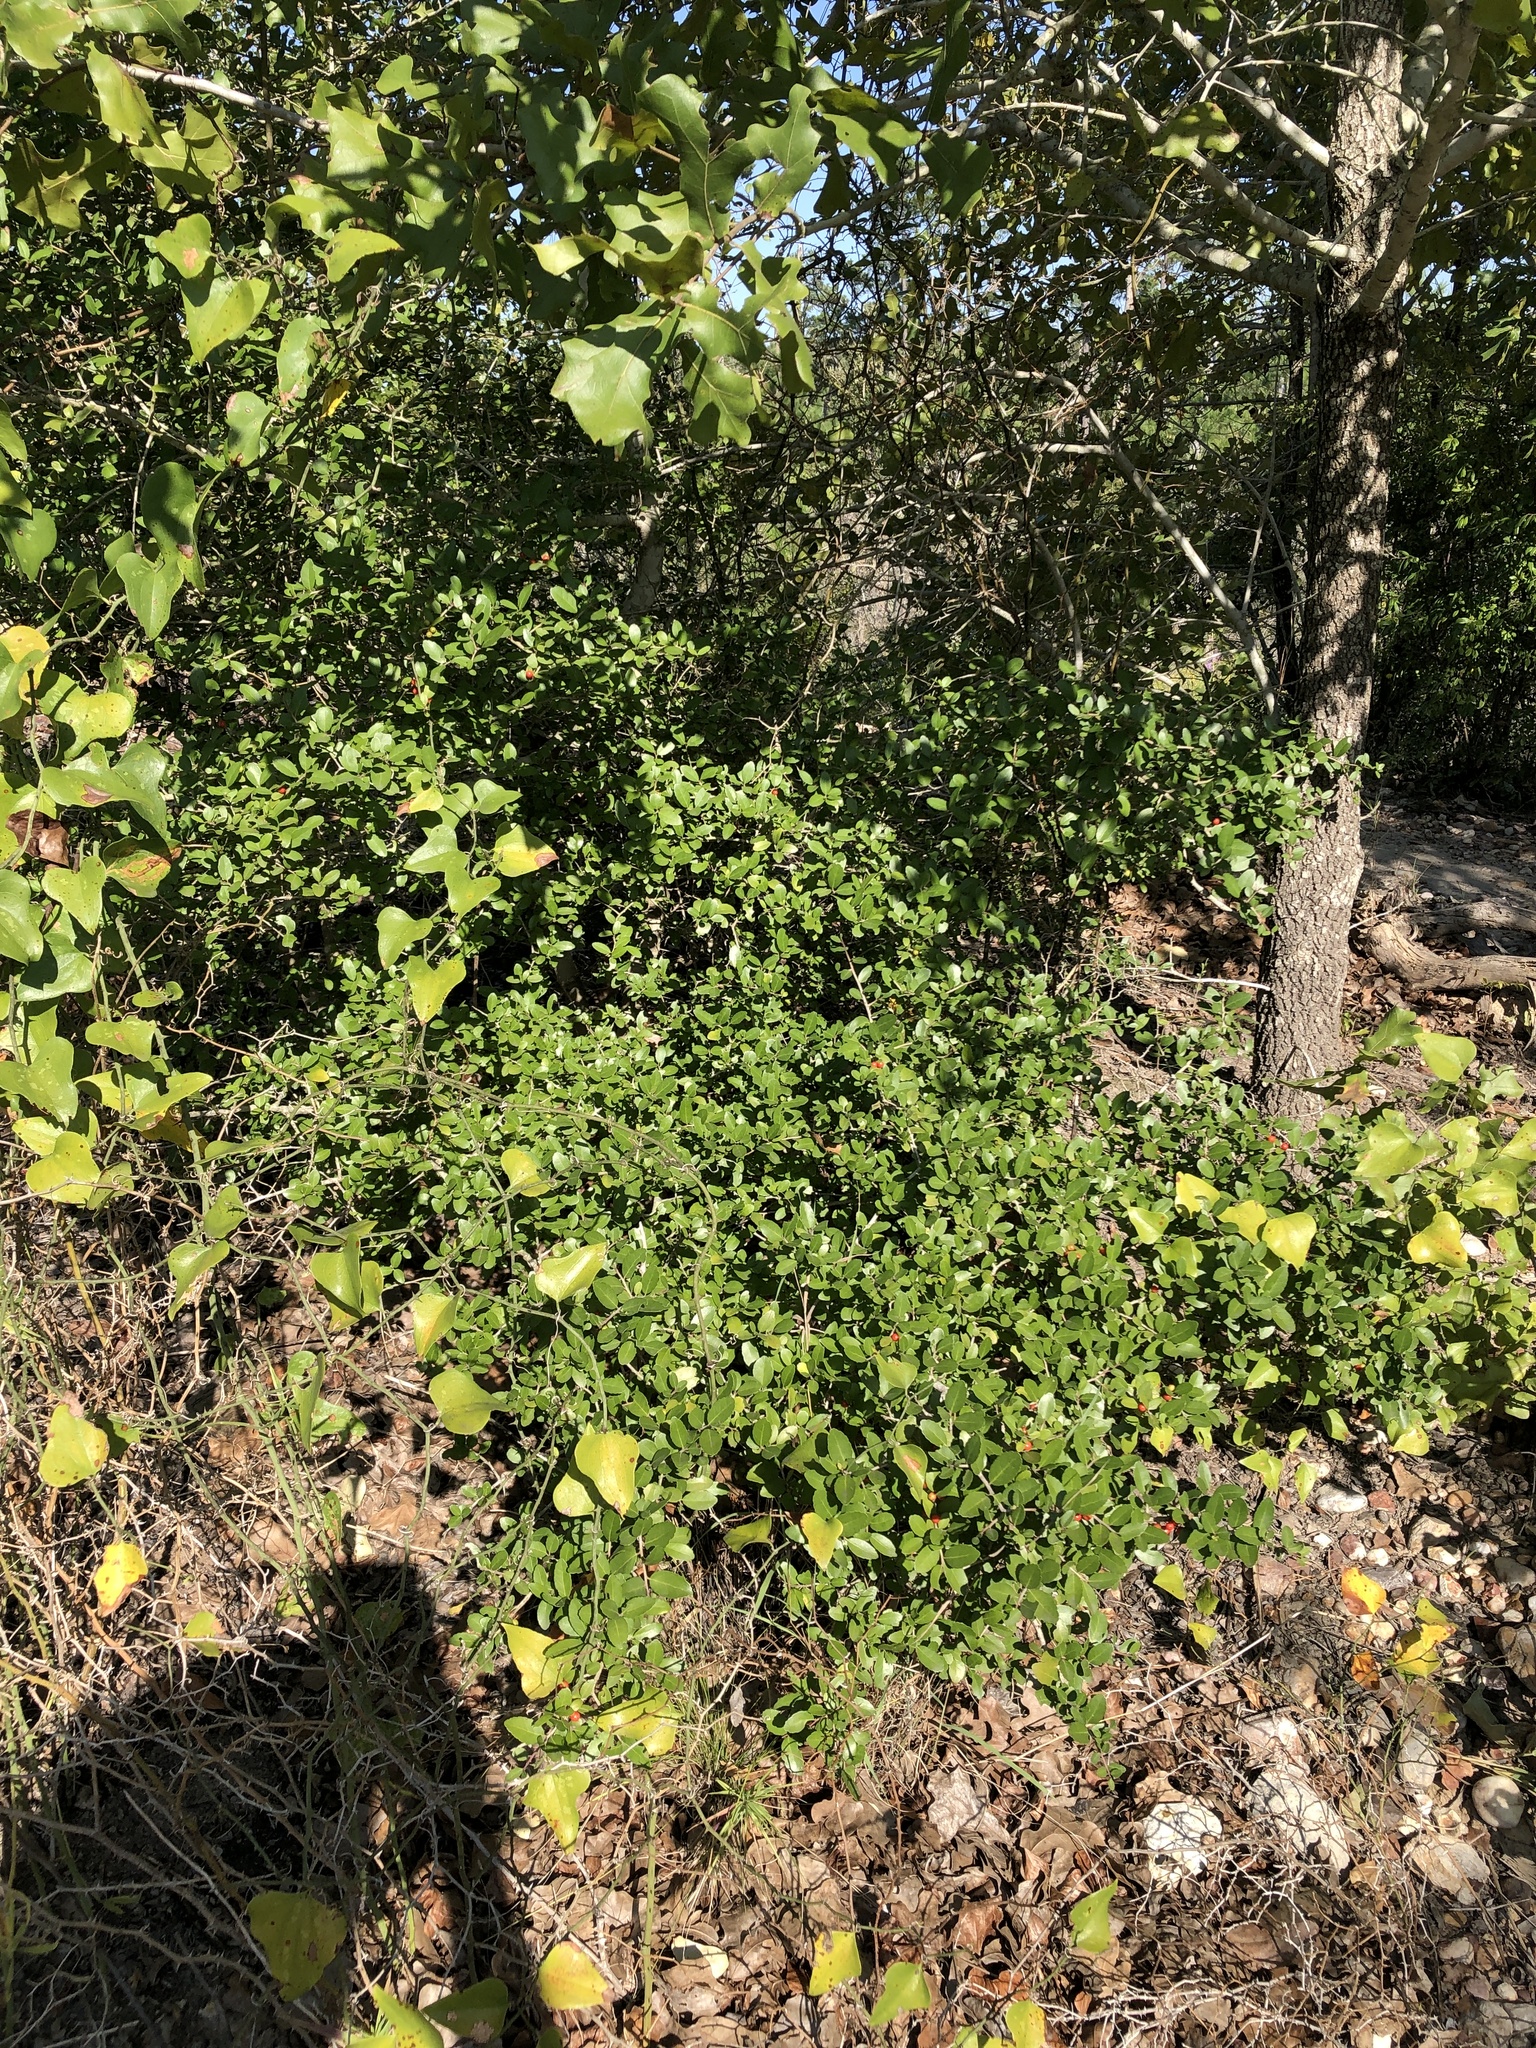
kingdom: Plantae
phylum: Tracheophyta
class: Magnoliopsida
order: Aquifoliales
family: Aquifoliaceae
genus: Ilex
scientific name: Ilex vomitoria
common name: Yaupon holly
